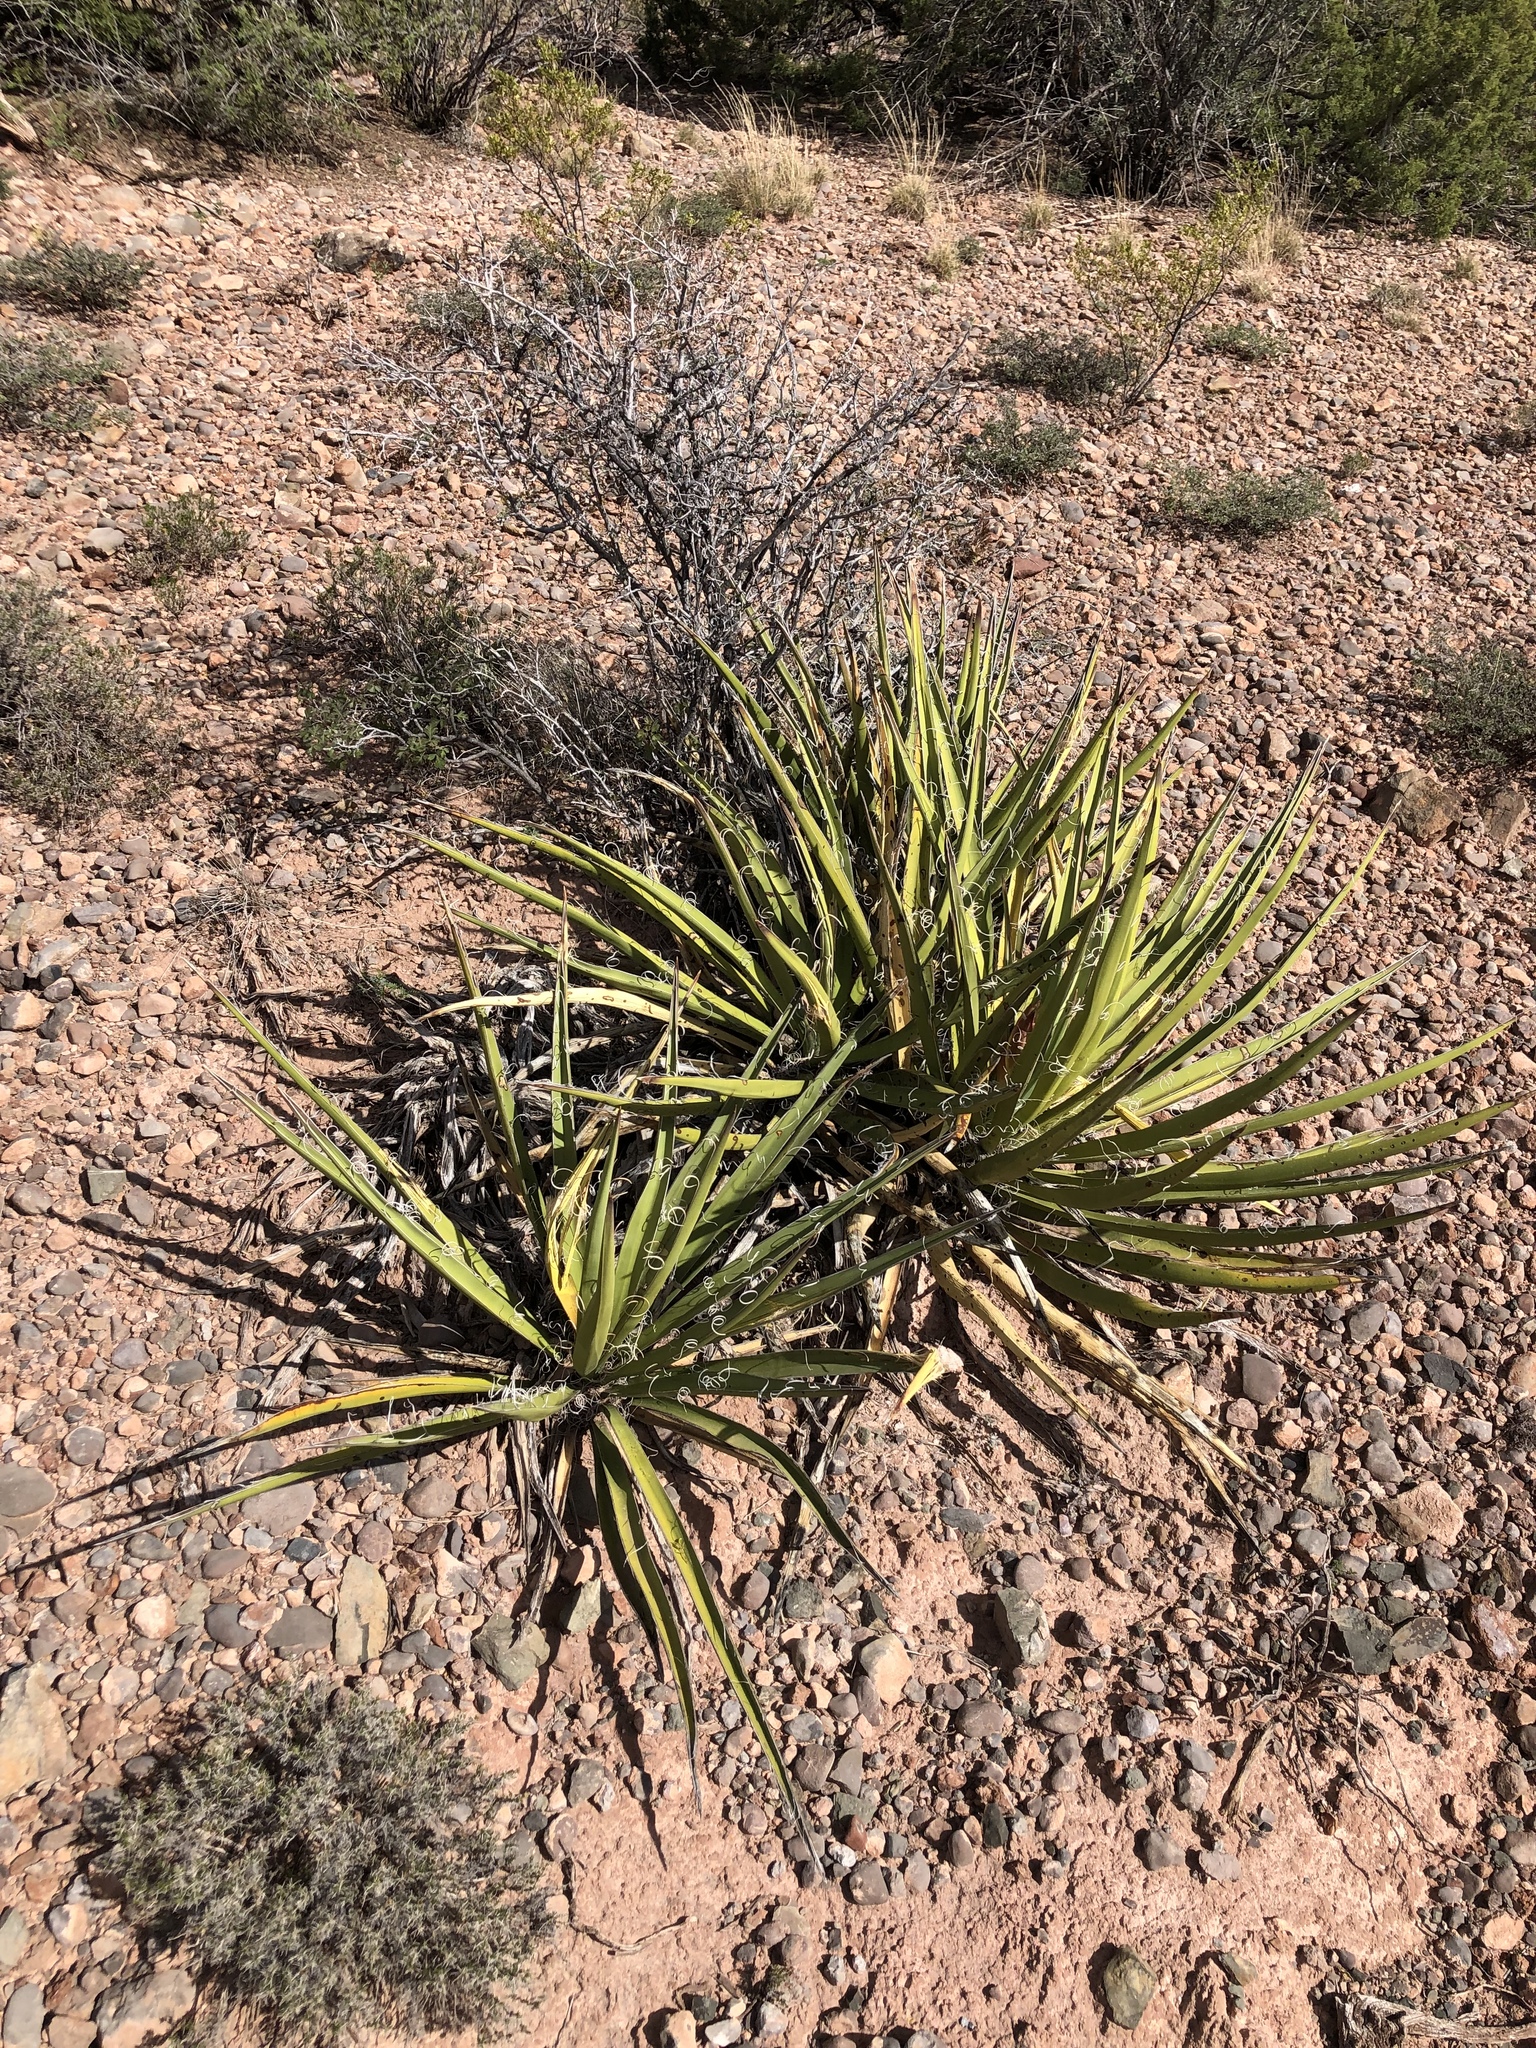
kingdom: Plantae
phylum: Tracheophyta
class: Liliopsida
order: Asparagales
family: Asparagaceae
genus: Yucca
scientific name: Yucca baccata
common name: Banana yucca
